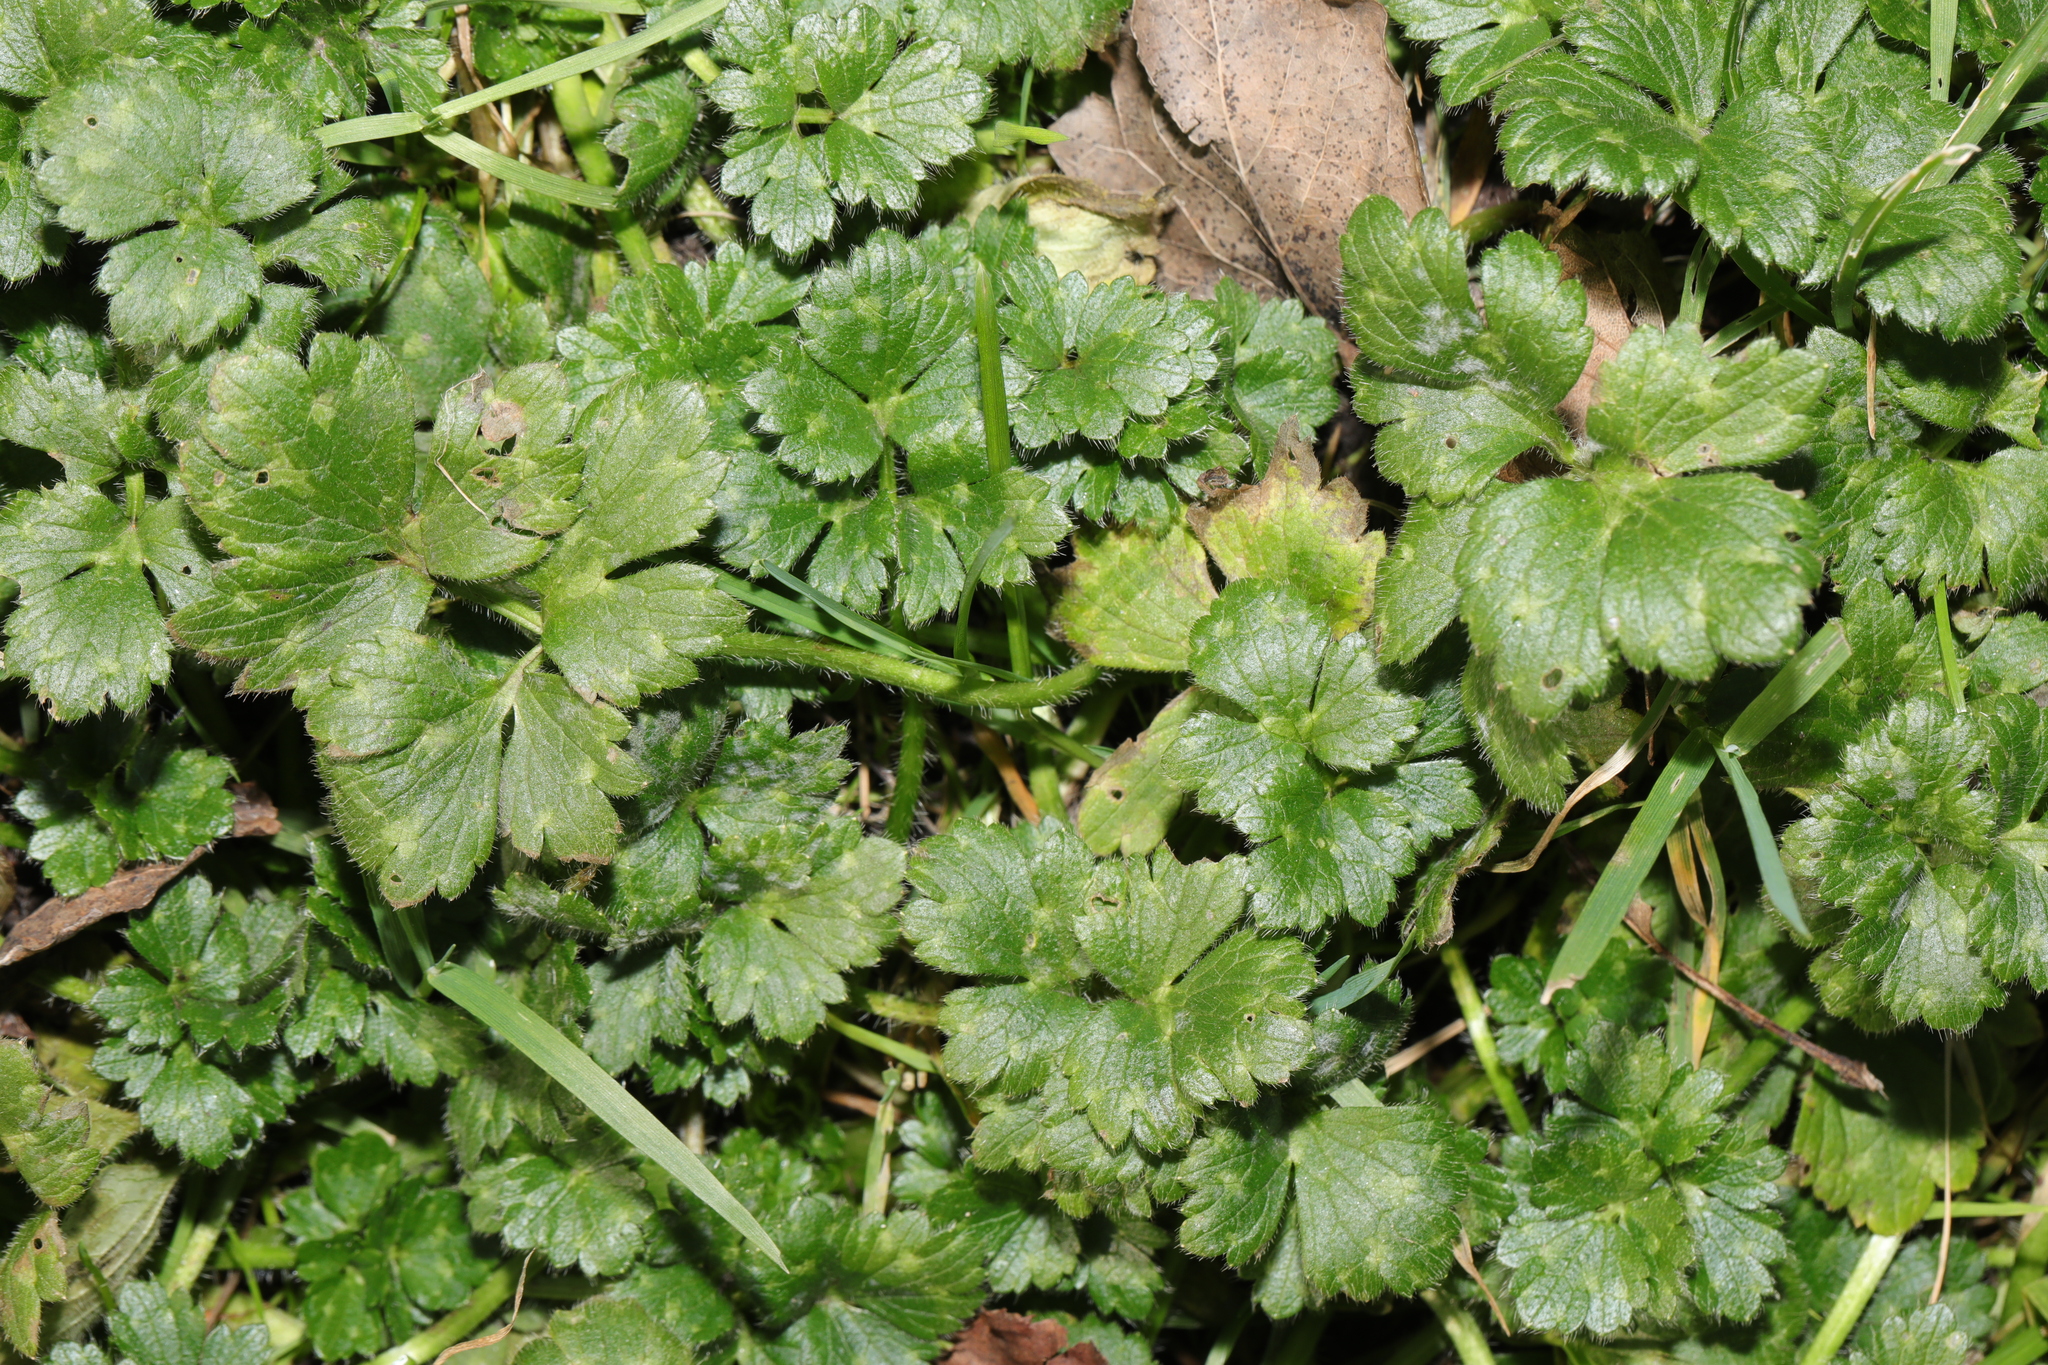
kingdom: Plantae
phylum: Tracheophyta
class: Magnoliopsida
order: Ranunculales
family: Ranunculaceae
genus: Ranunculus
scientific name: Ranunculus repens
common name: Creeping buttercup
